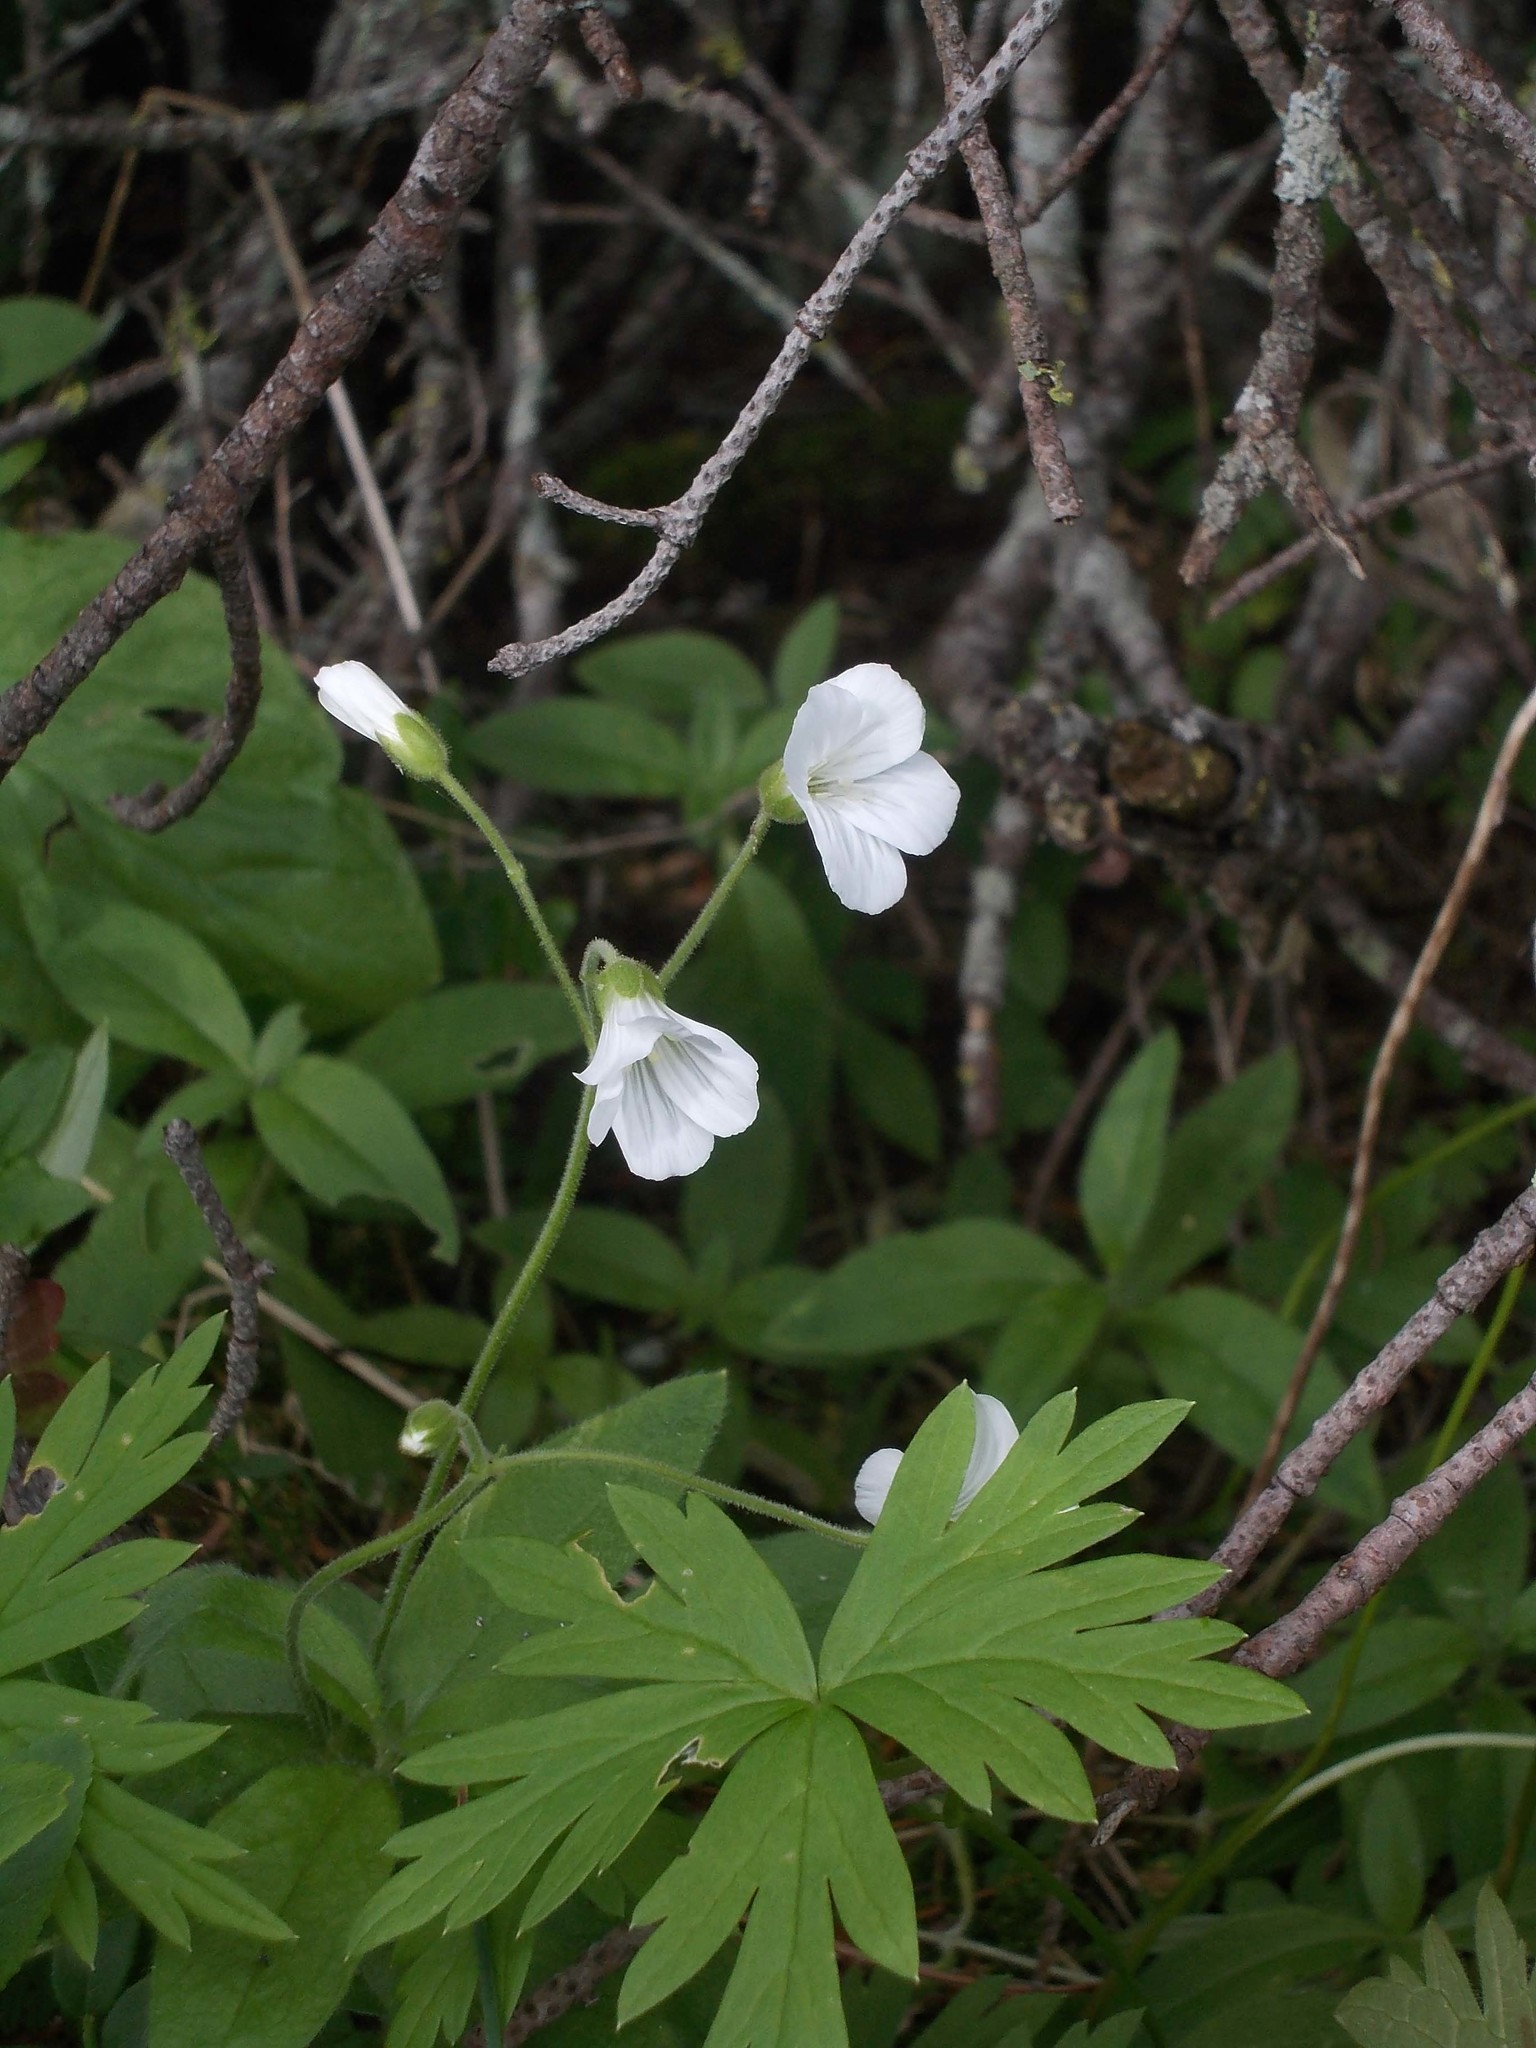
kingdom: Plantae
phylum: Tracheophyta
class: Magnoliopsida
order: Caryophyllales
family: Caryophyllaceae
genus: Cerastium
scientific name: Cerastium pauciflorum
